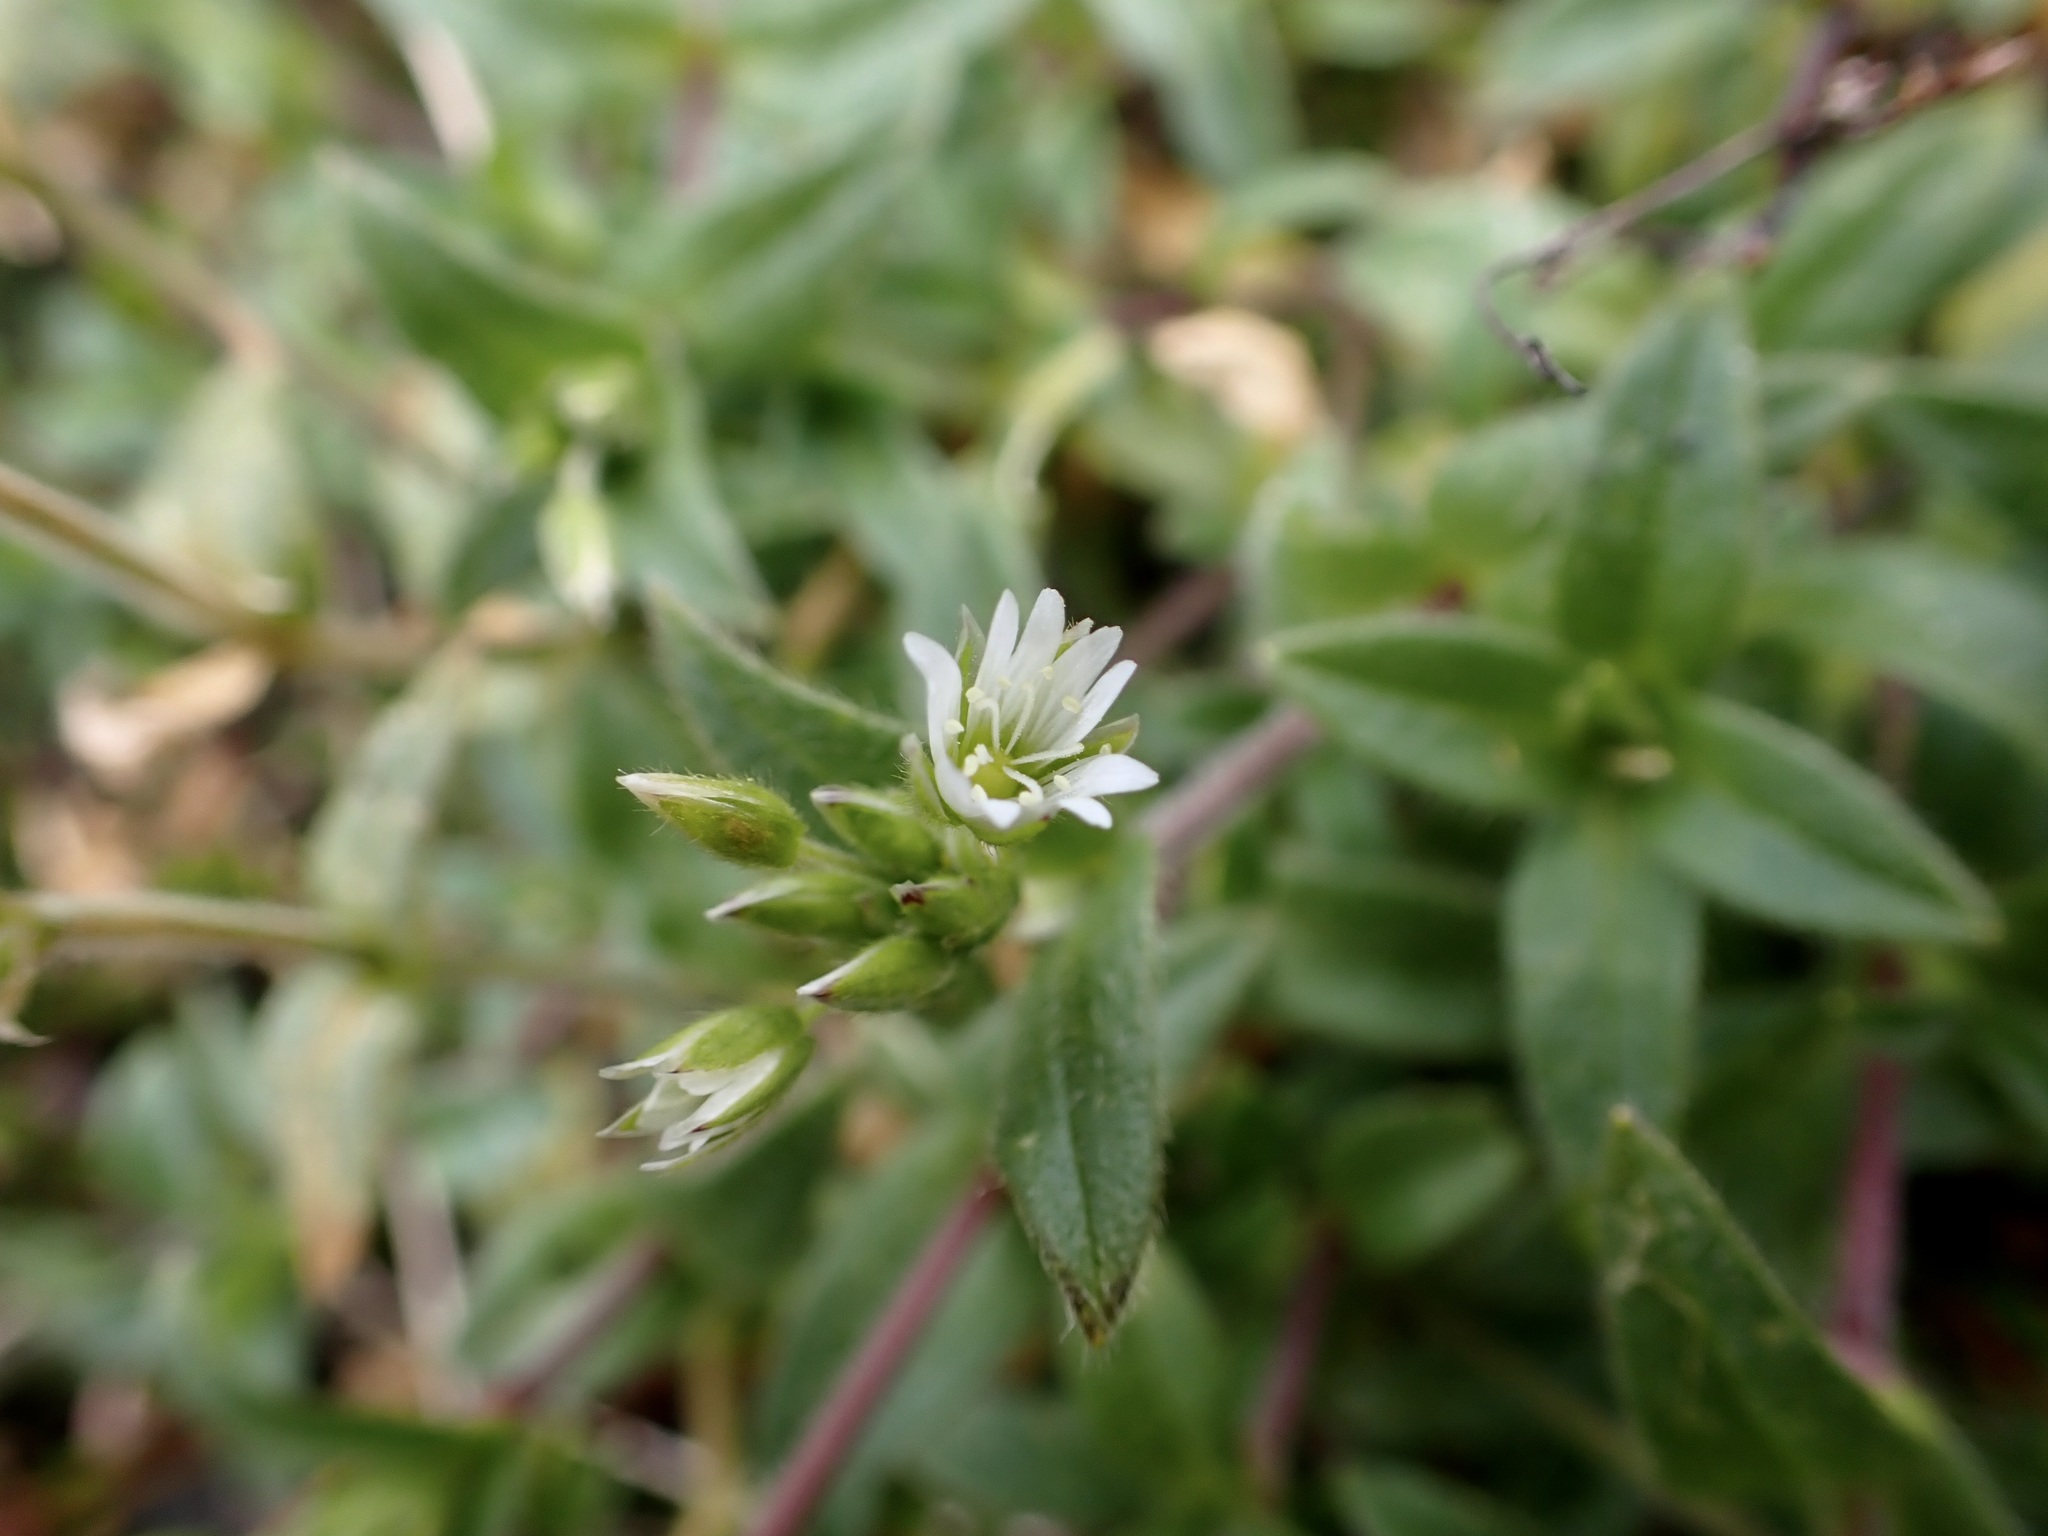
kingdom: Plantae
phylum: Tracheophyta
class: Magnoliopsida
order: Caryophyllales
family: Caryophyllaceae
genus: Cerastium
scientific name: Cerastium fontanum
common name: Common mouse-ear
